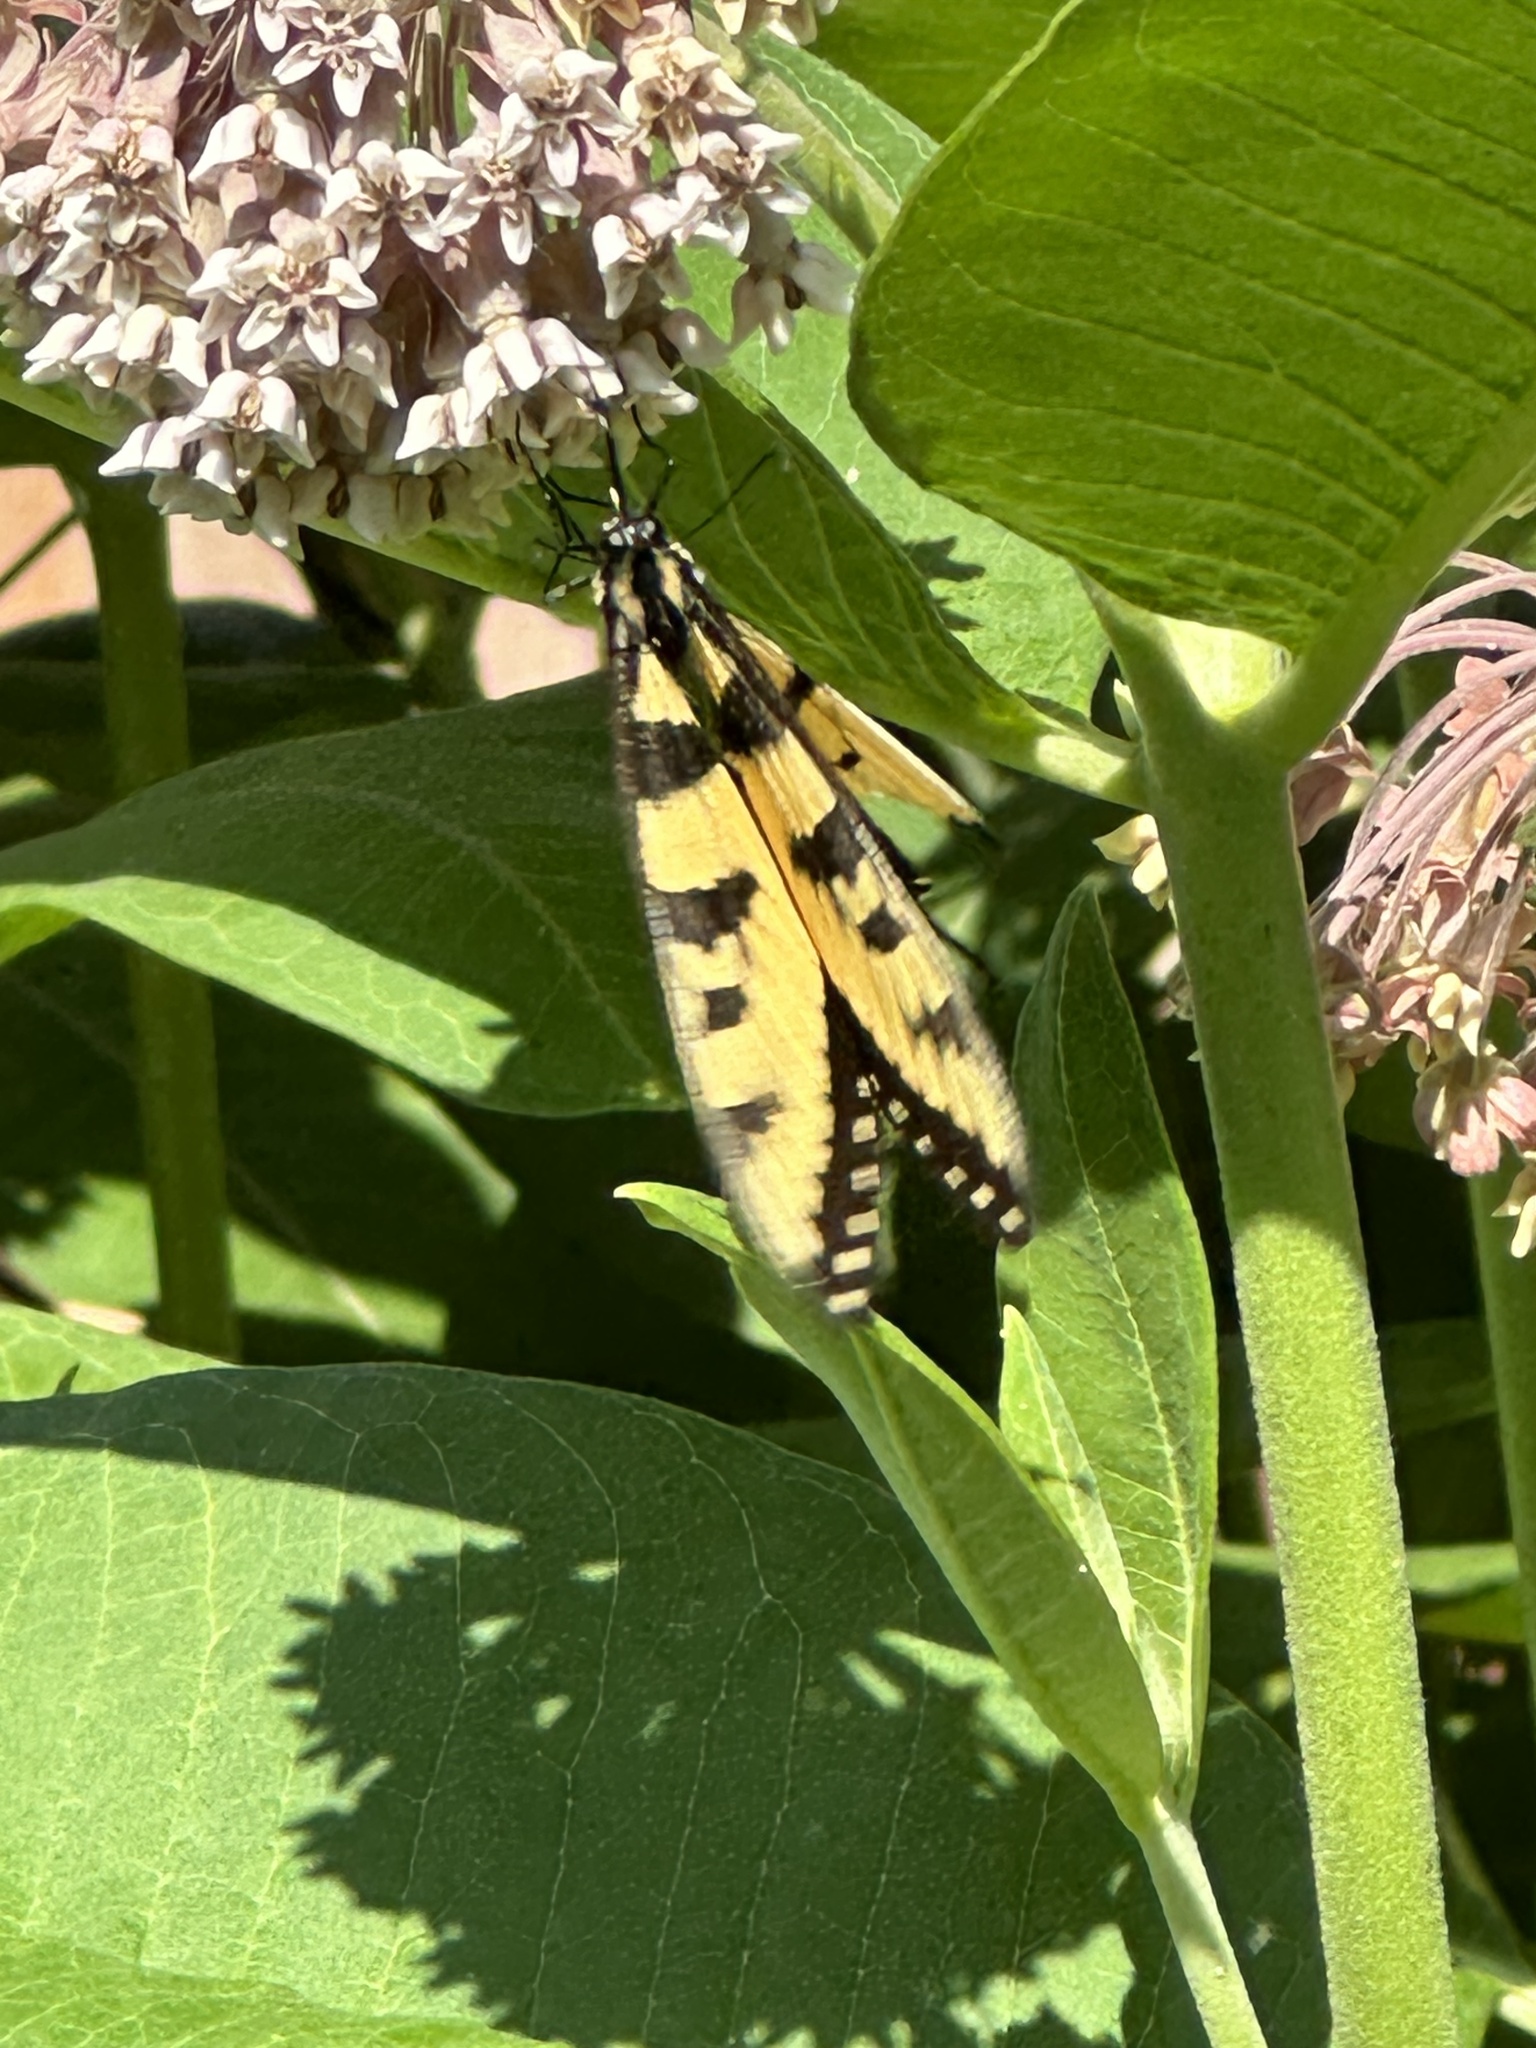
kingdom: Animalia
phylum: Arthropoda
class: Insecta
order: Lepidoptera
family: Papilionidae
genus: Papilio
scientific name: Papilio glaucus
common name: Tiger swallowtail
